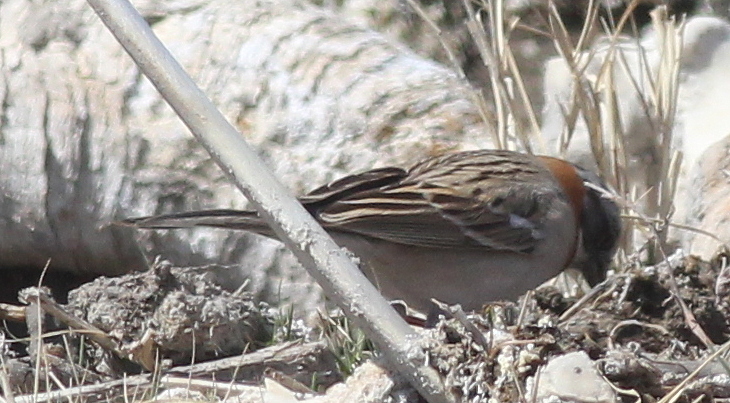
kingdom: Animalia
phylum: Chordata
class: Aves
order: Passeriformes
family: Passerellidae
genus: Zonotrichia
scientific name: Zonotrichia capensis
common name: Rufous-collared sparrow
